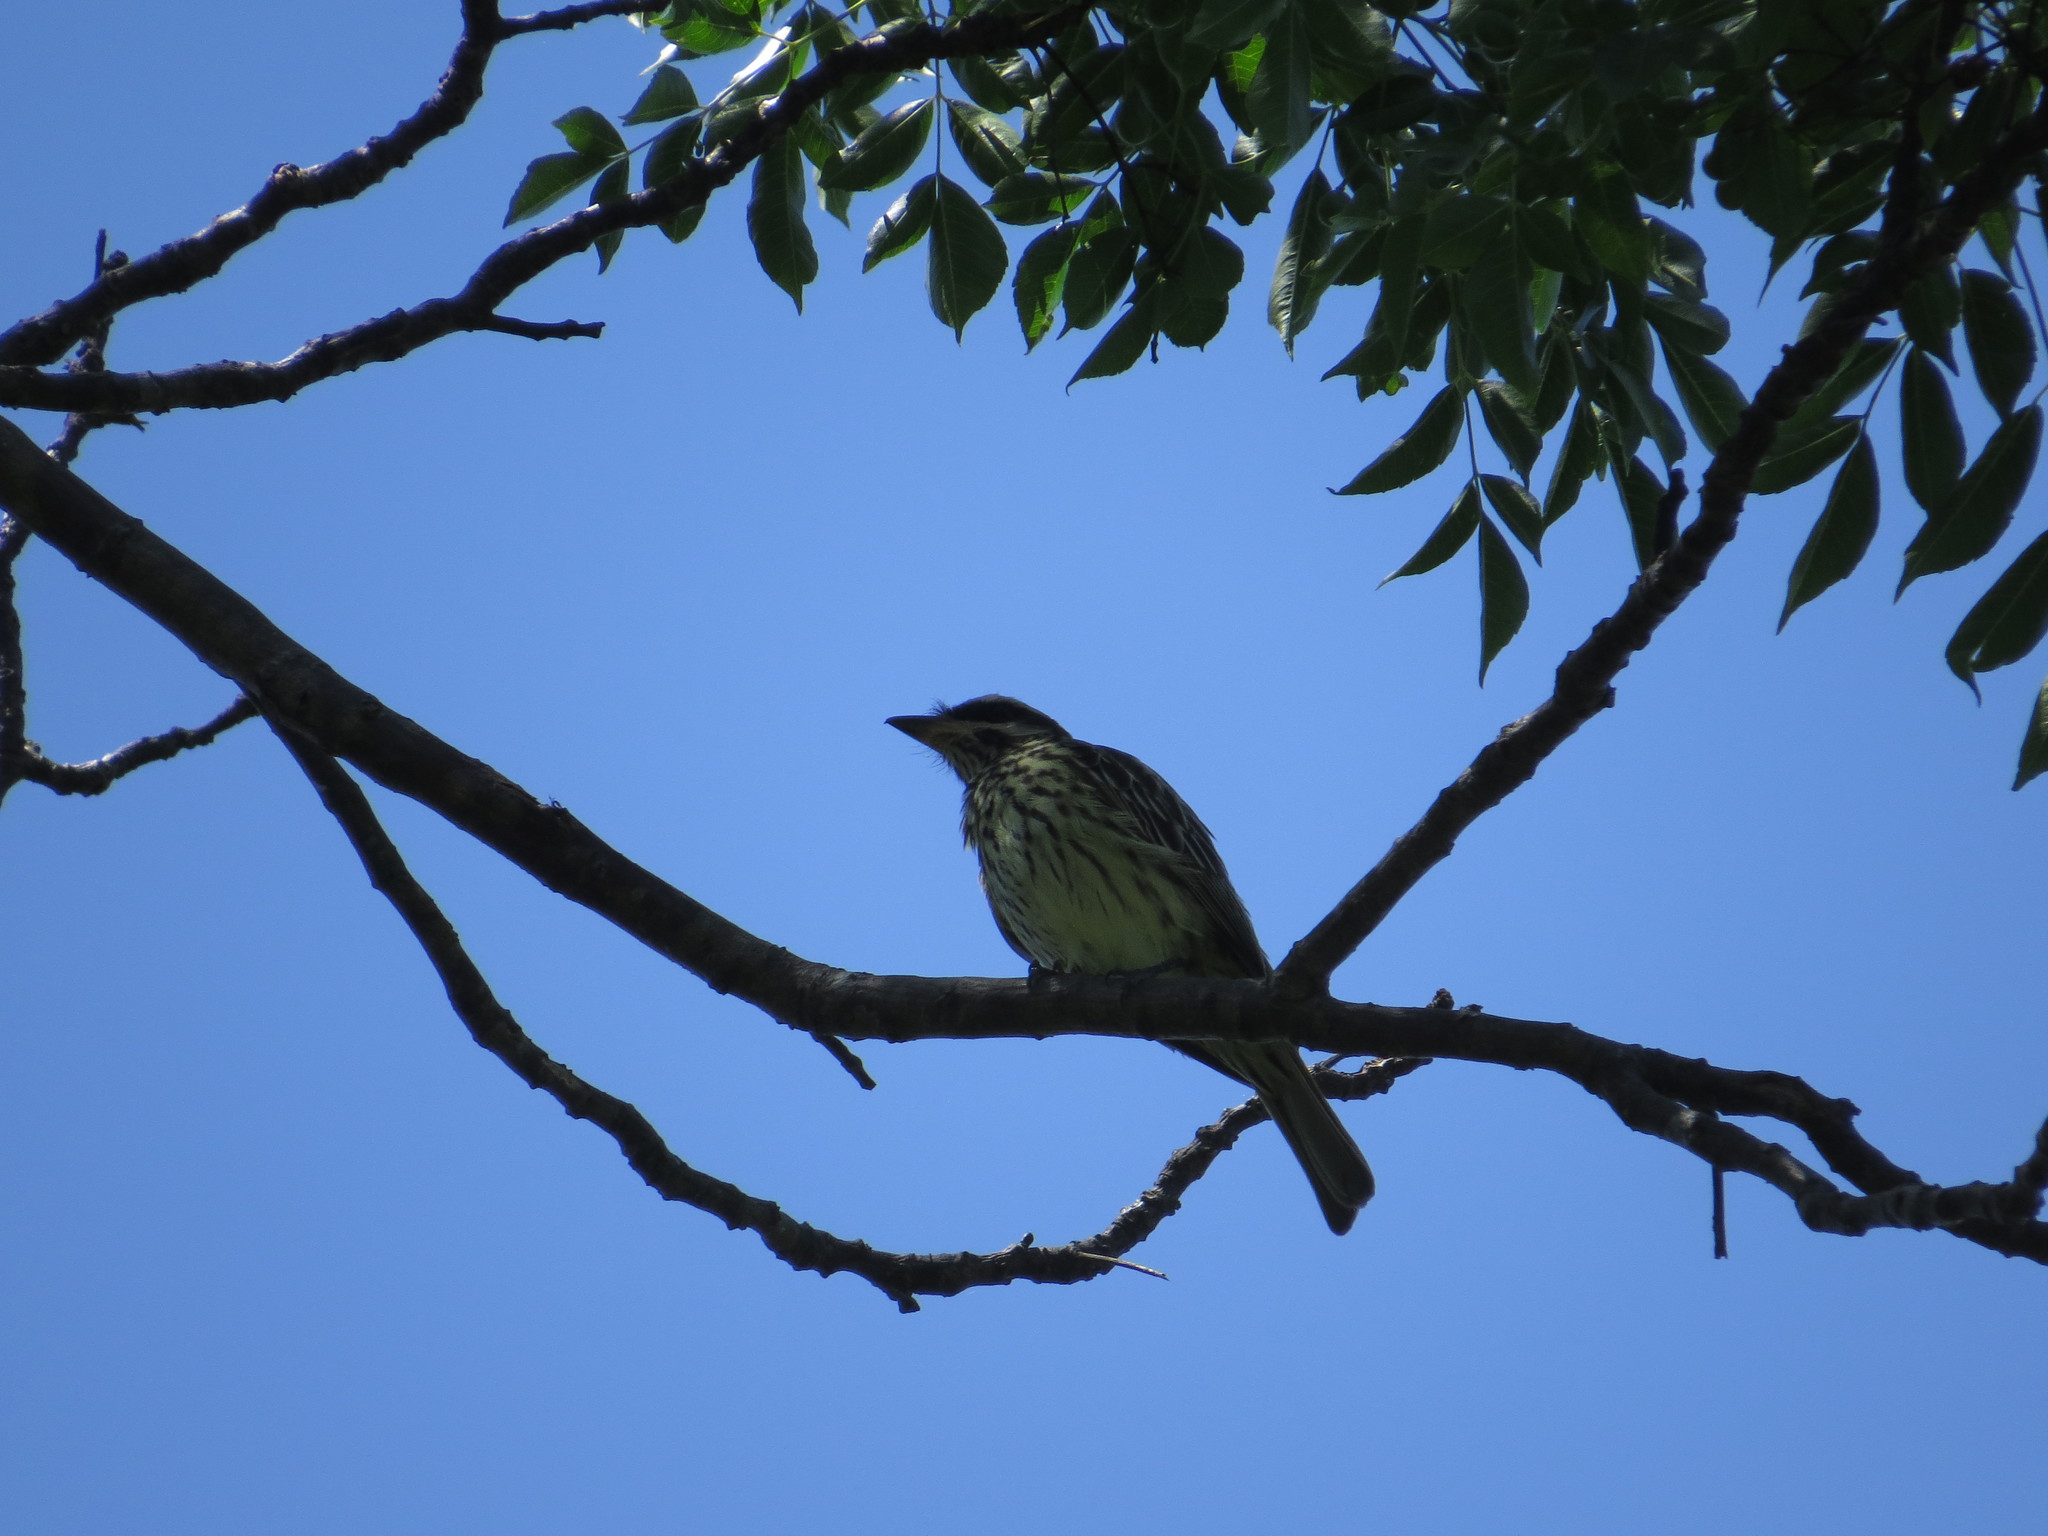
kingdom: Animalia
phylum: Chordata
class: Aves
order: Passeriformes
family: Tyrannidae
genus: Myiodynastes
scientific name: Myiodynastes maculatus
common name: Streaked flycatcher
